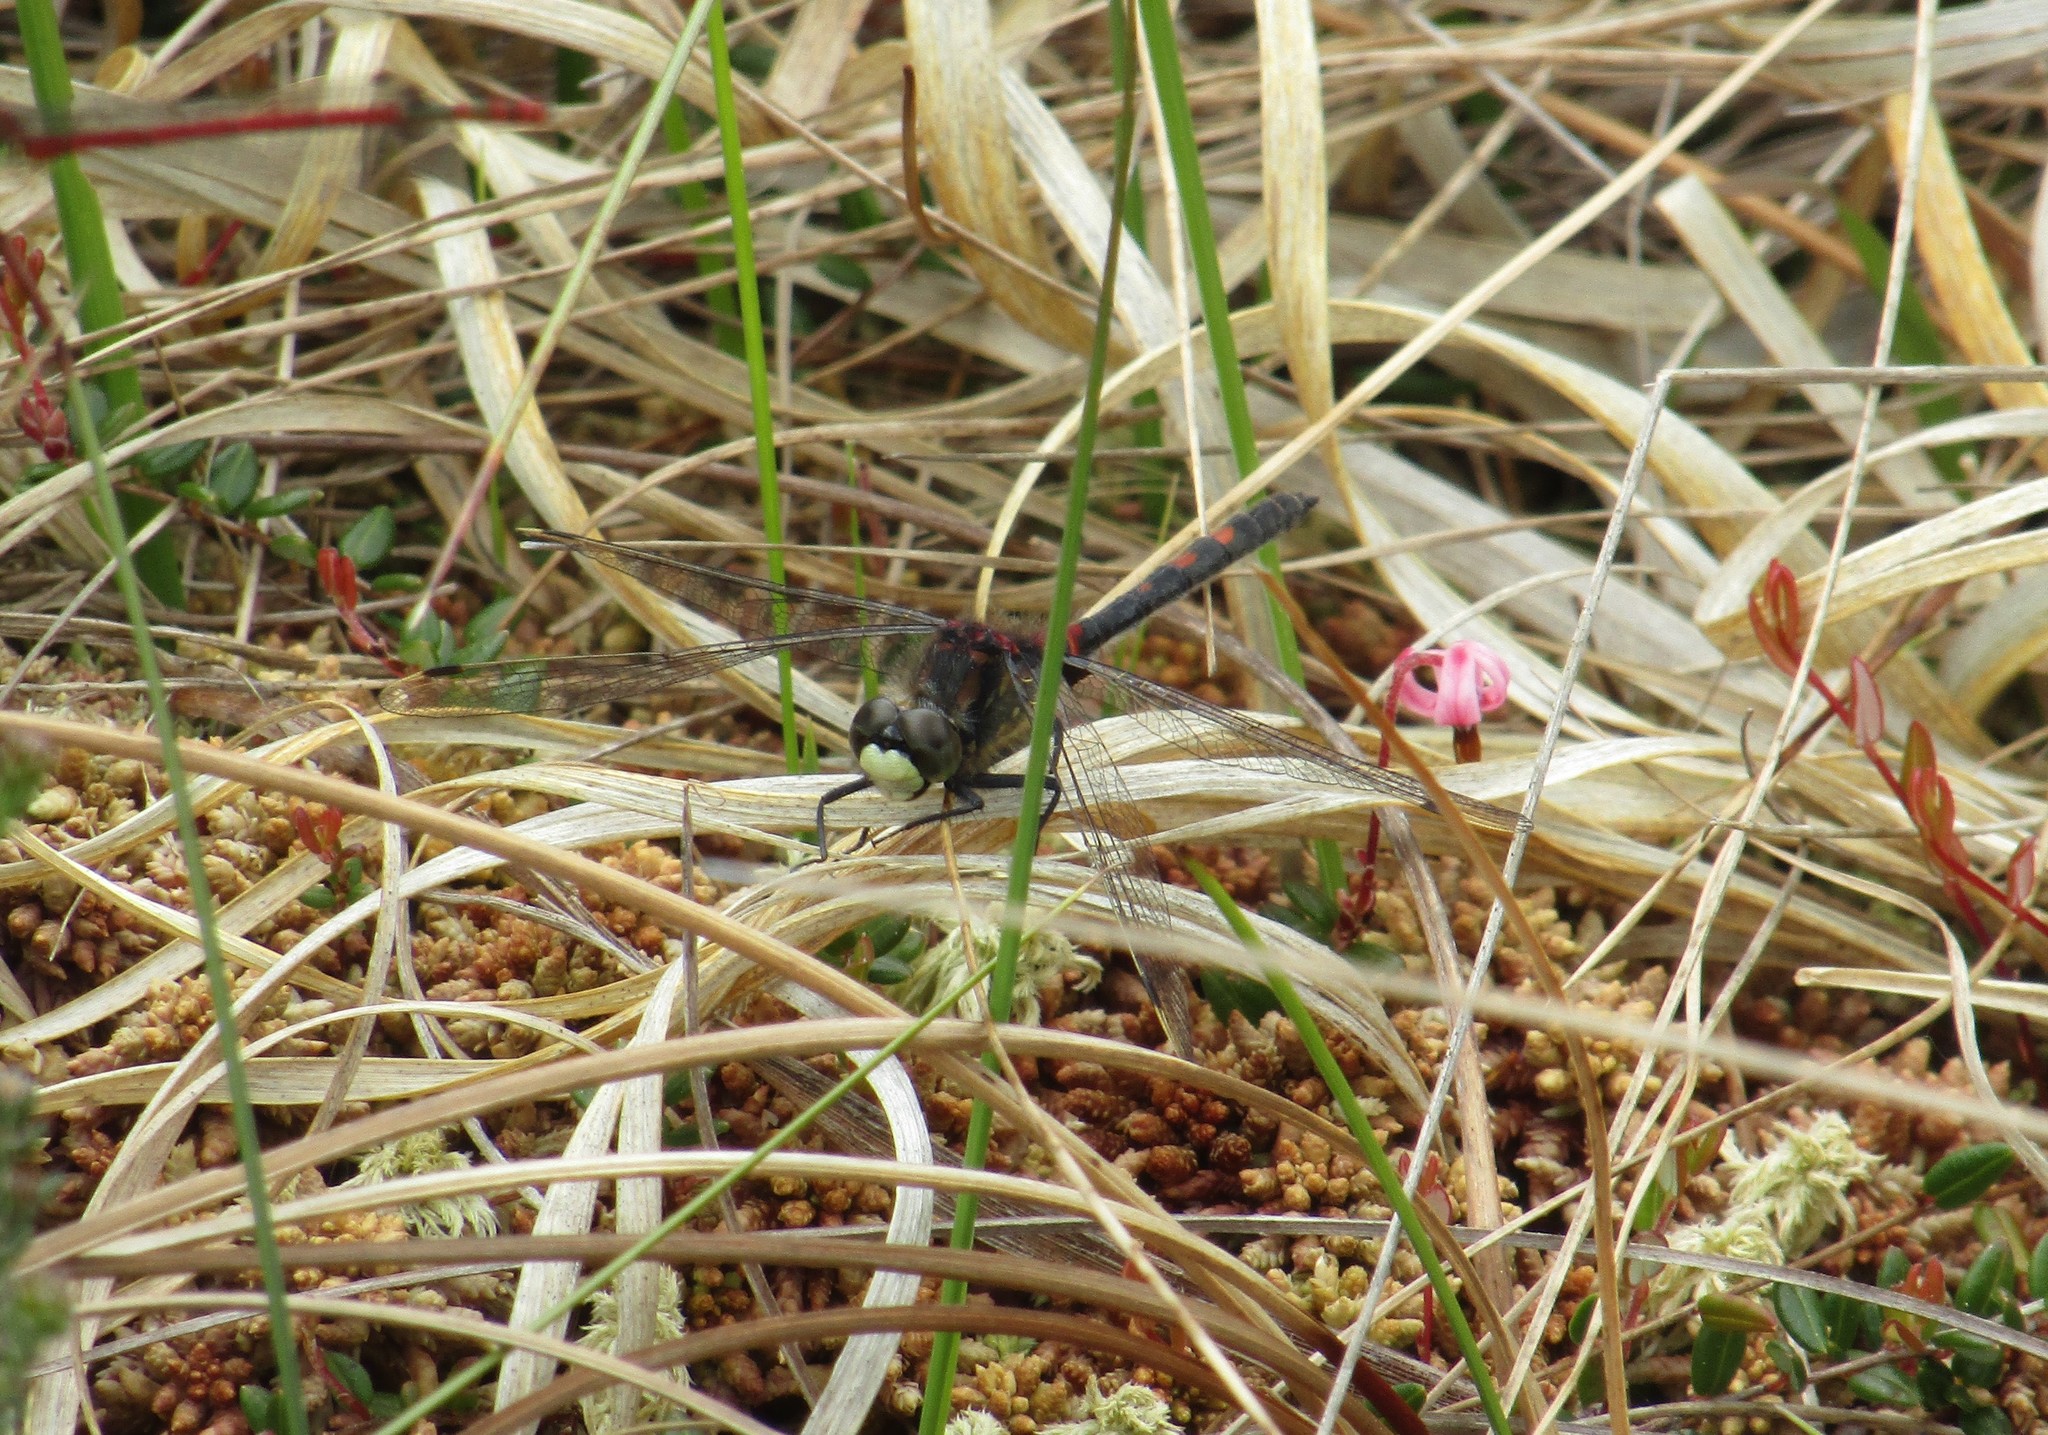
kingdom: Animalia
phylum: Arthropoda
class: Insecta
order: Odonata
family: Libellulidae
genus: Leucorrhinia
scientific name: Leucorrhinia dubia
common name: White-faced darter
